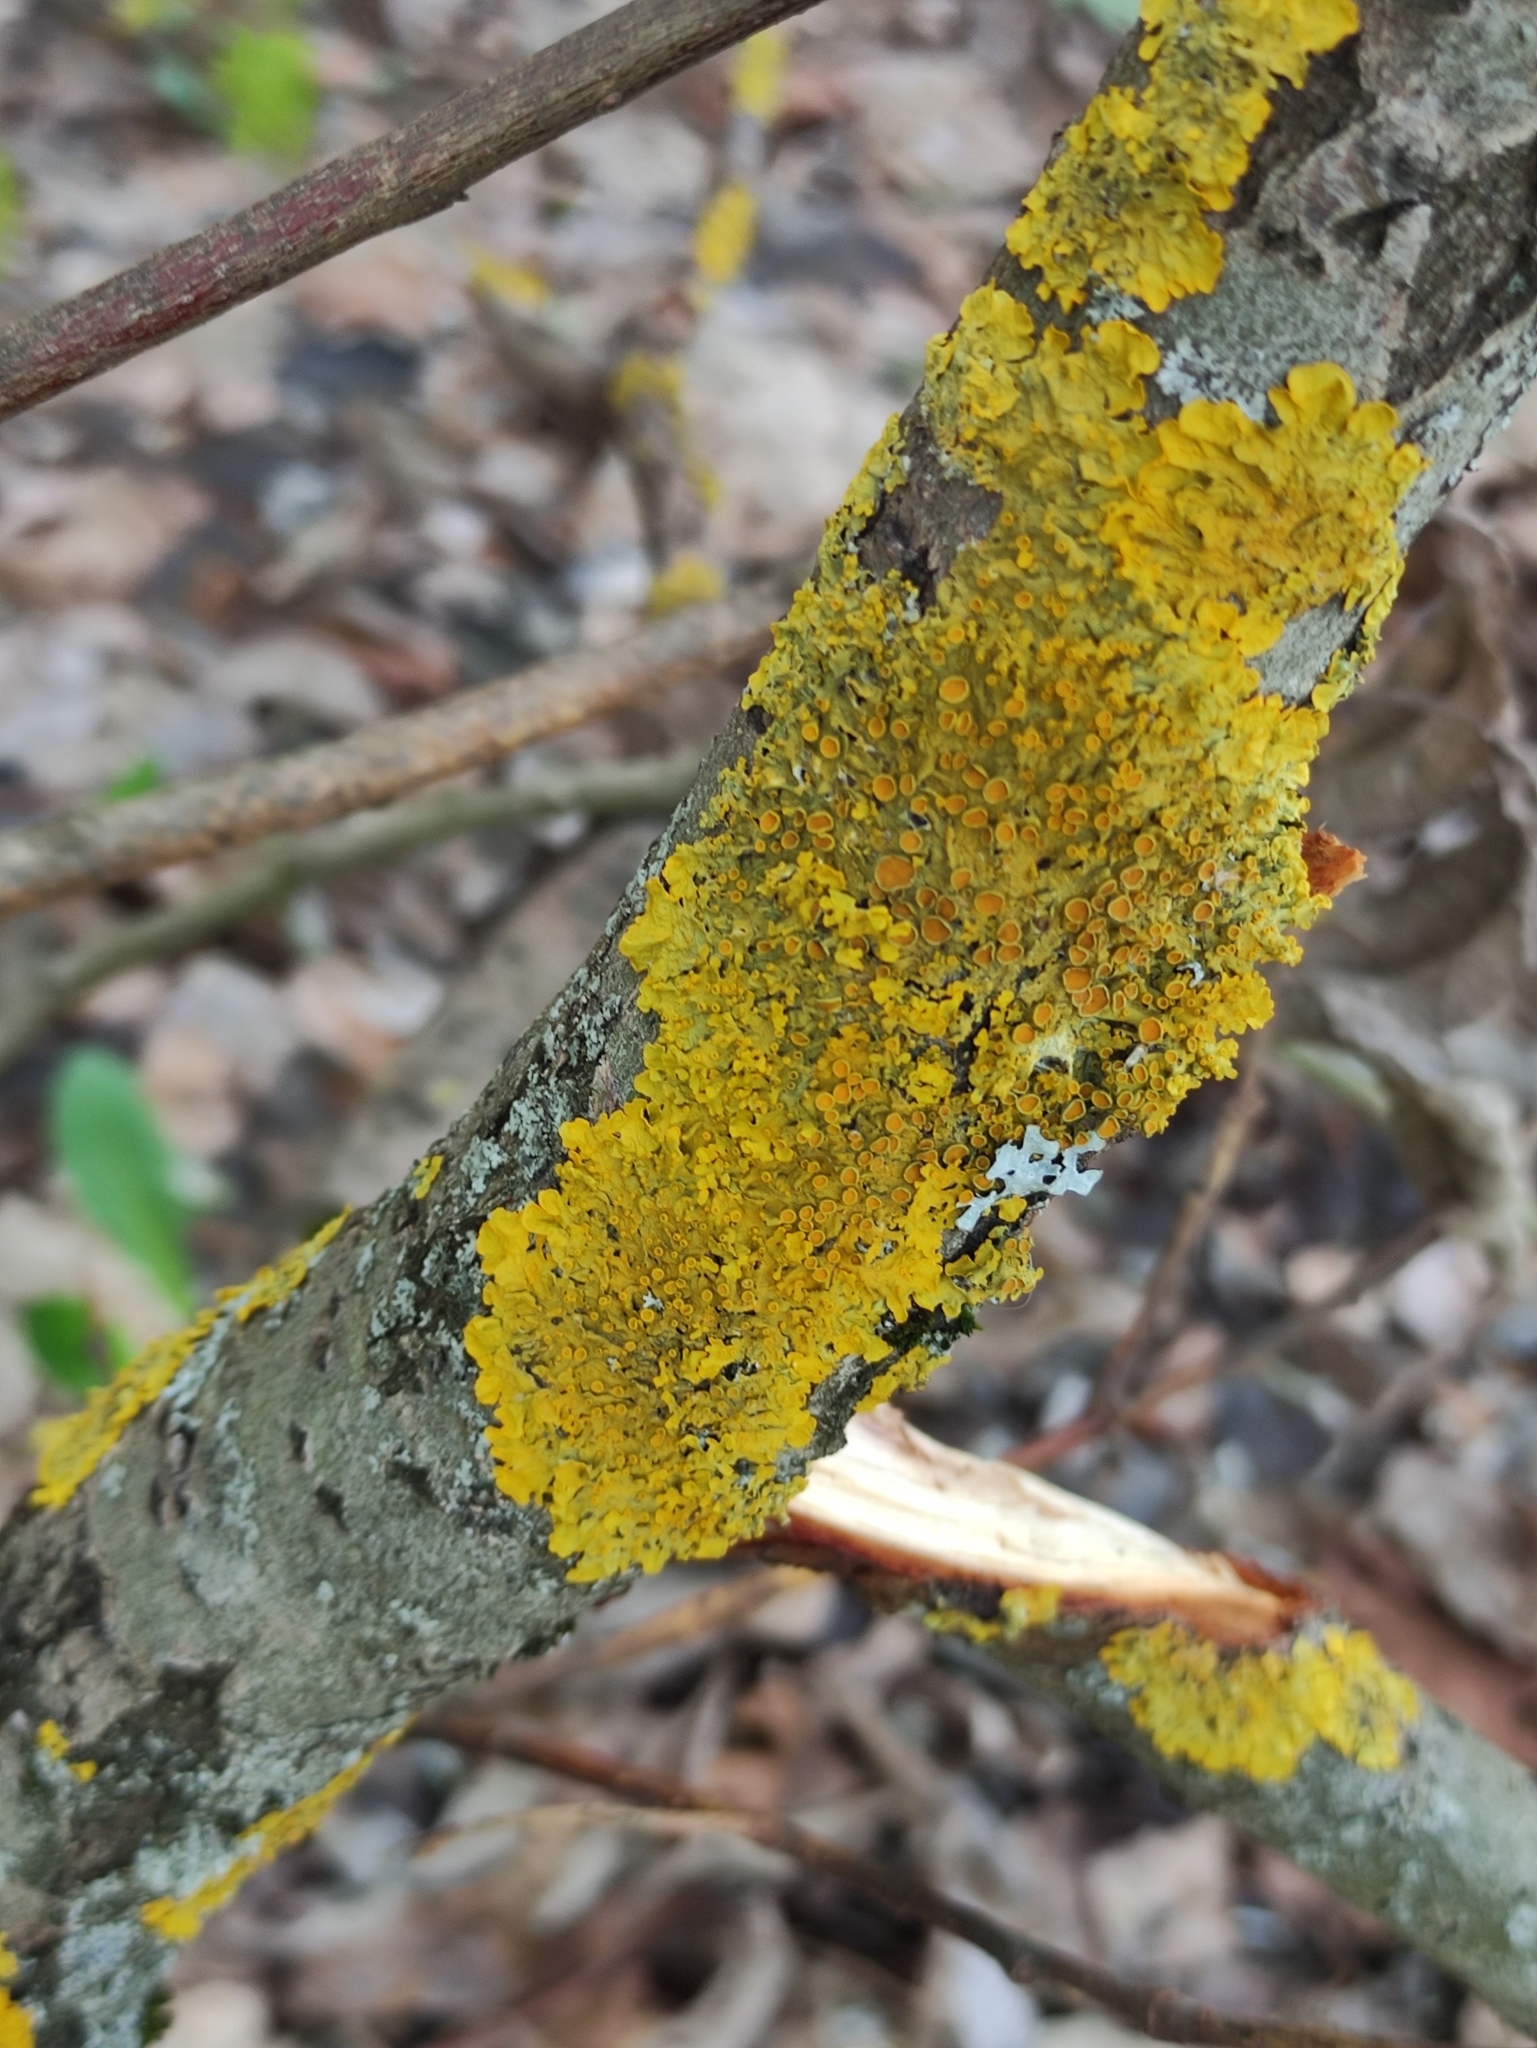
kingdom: Fungi
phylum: Ascomycota
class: Lecanoromycetes
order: Teloschistales
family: Teloschistaceae
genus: Xanthoria
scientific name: Xanthoria parietina
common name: Common orange lichen
